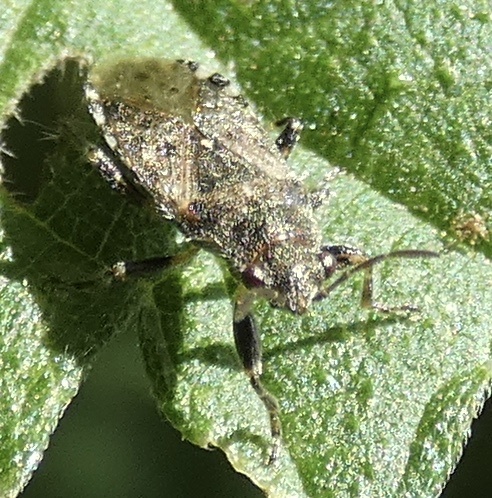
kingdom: Animalia
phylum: Arthropoda
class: Insecta
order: Hemiptera
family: Heterogastridae
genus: Heterogaster
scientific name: Heterogaster urticae
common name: Seed bug
